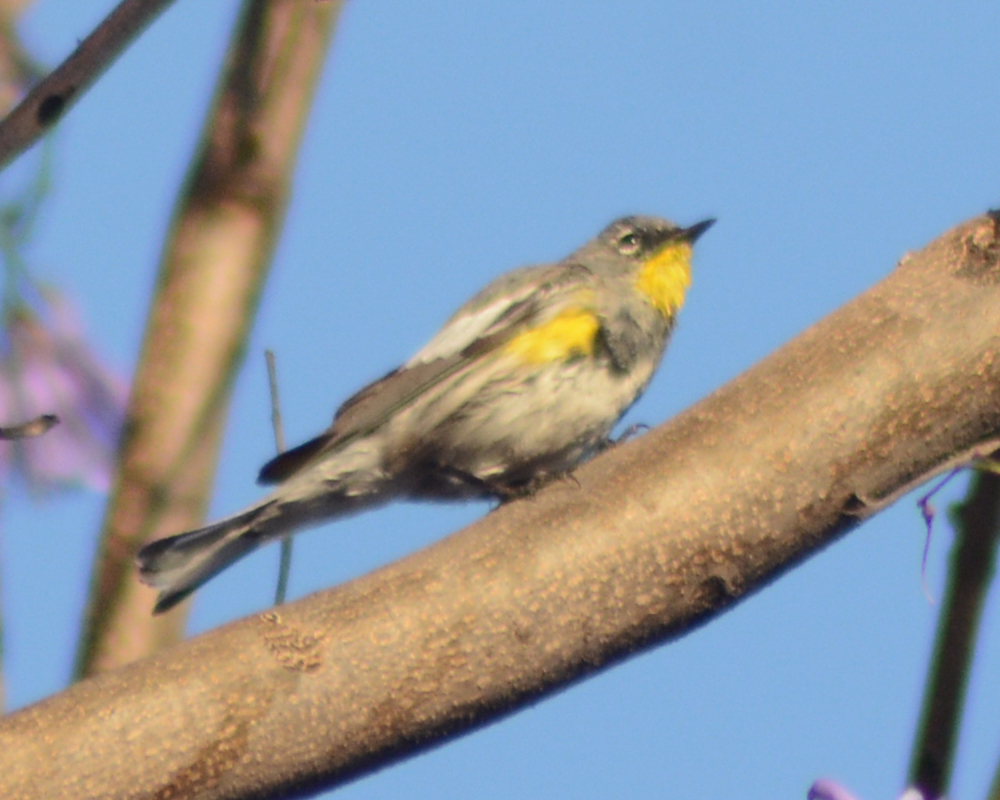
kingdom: Animalia
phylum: Chordata
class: Aves
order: Passeriformes
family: Parulidae
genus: Setophaga
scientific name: Setophaga coronata
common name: Myrtle warbler
